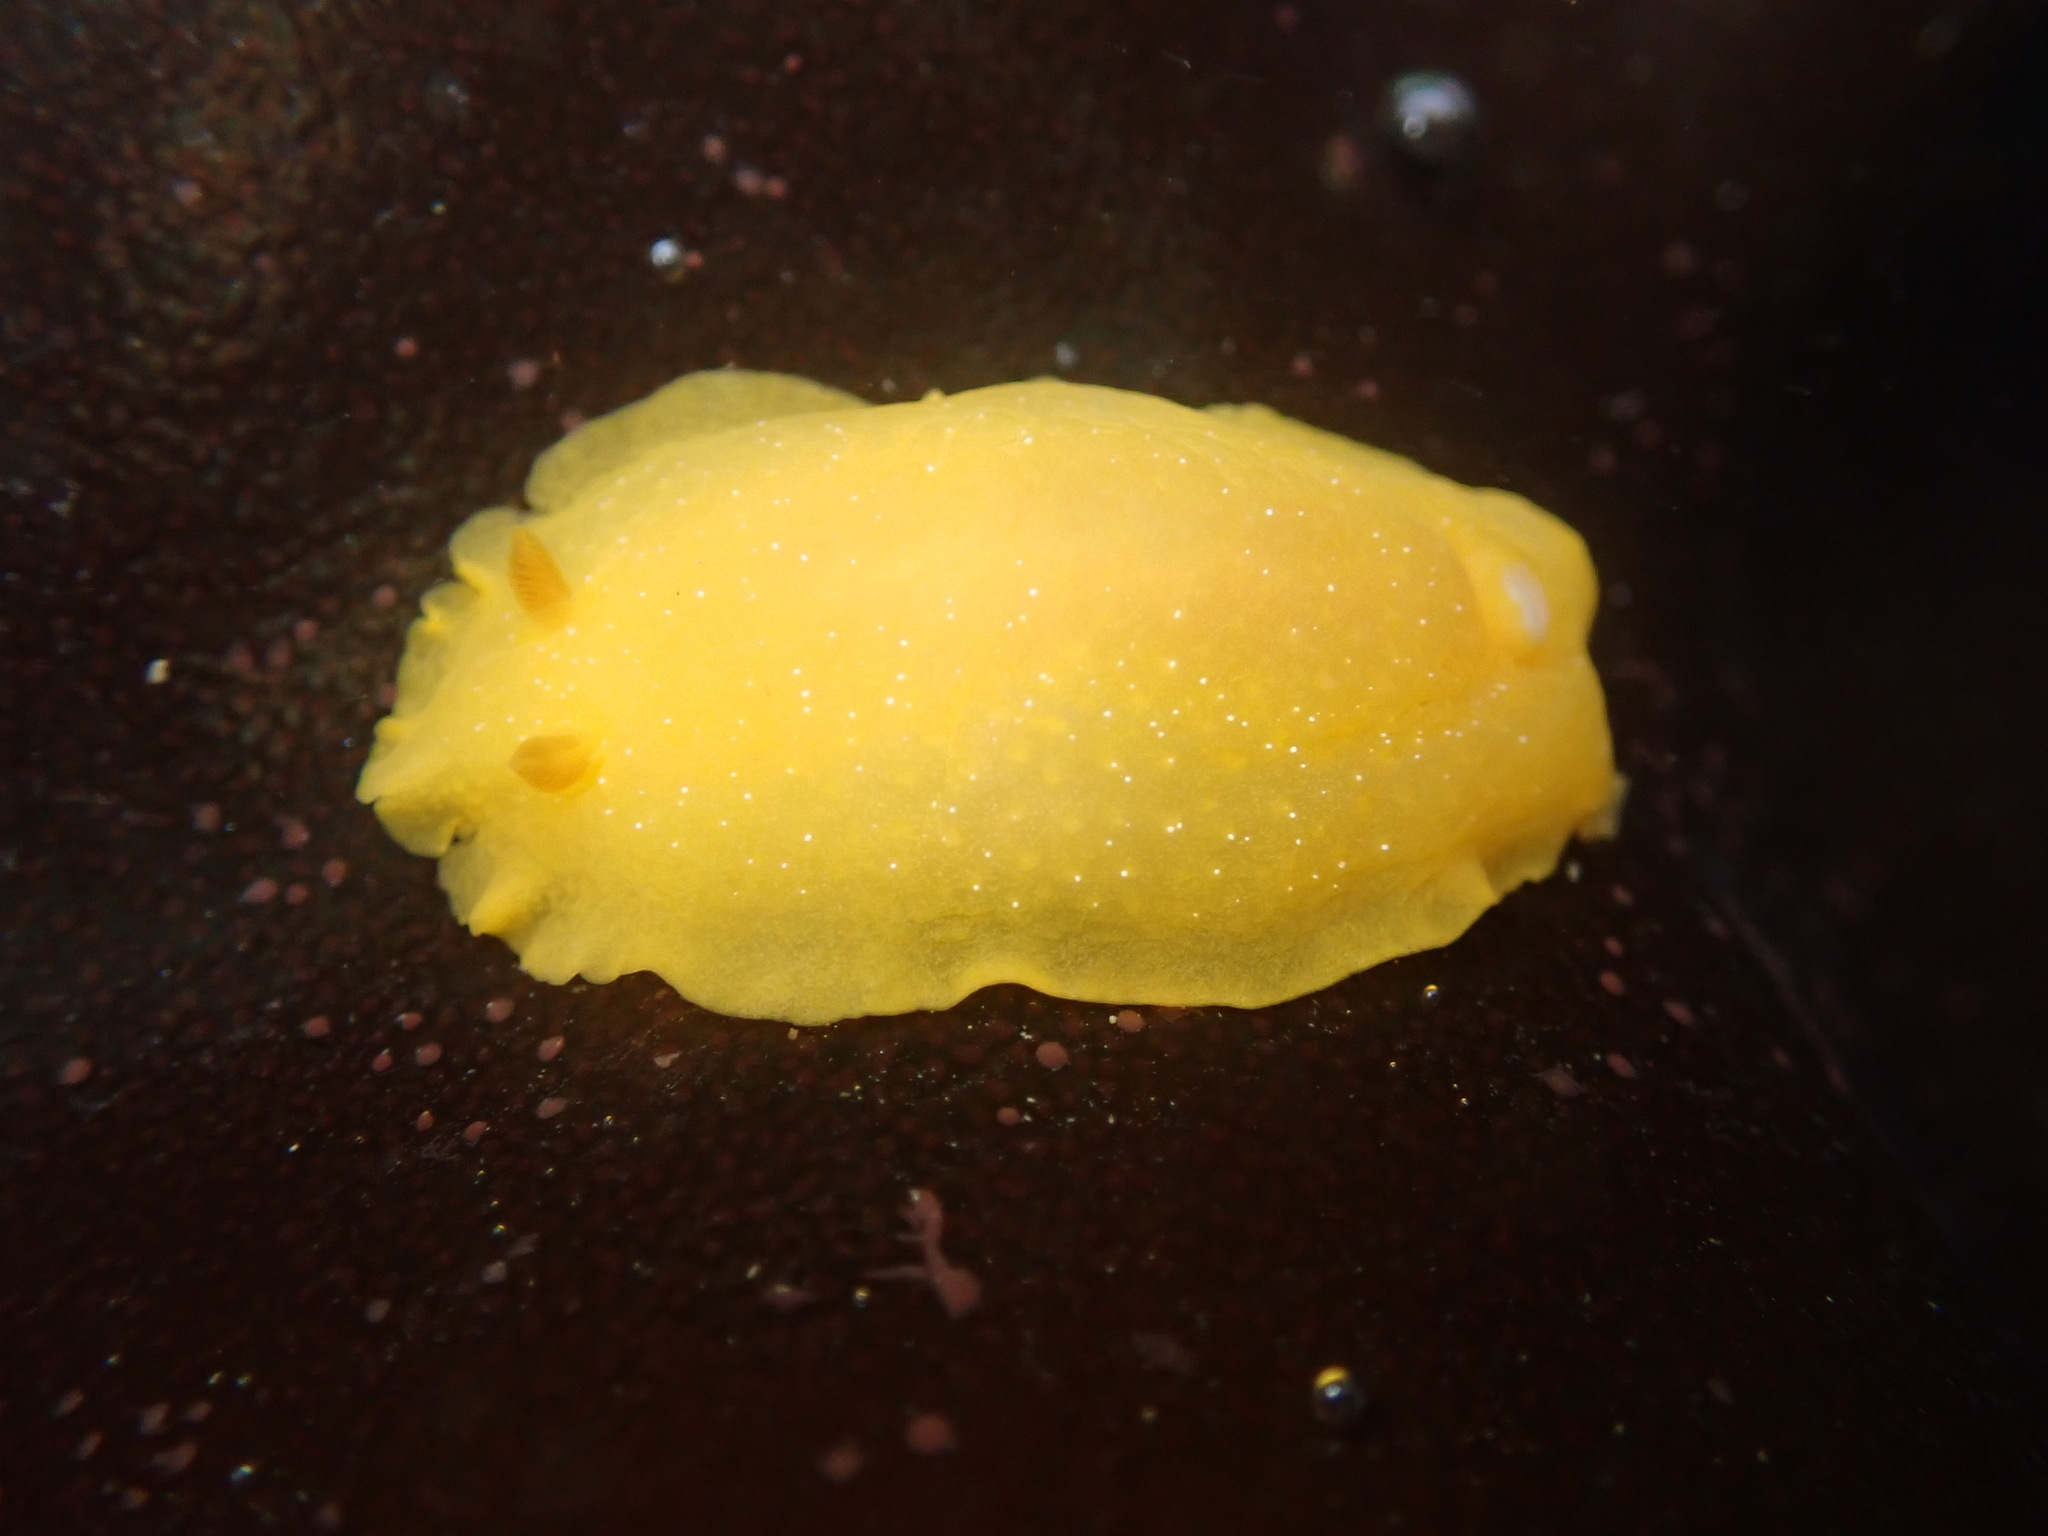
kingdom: Animalia
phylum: Mollusca
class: Gastropoda
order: Nudibranchia
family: Dendrodorididae
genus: Doriopsilla
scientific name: Doriopsilla fulva
